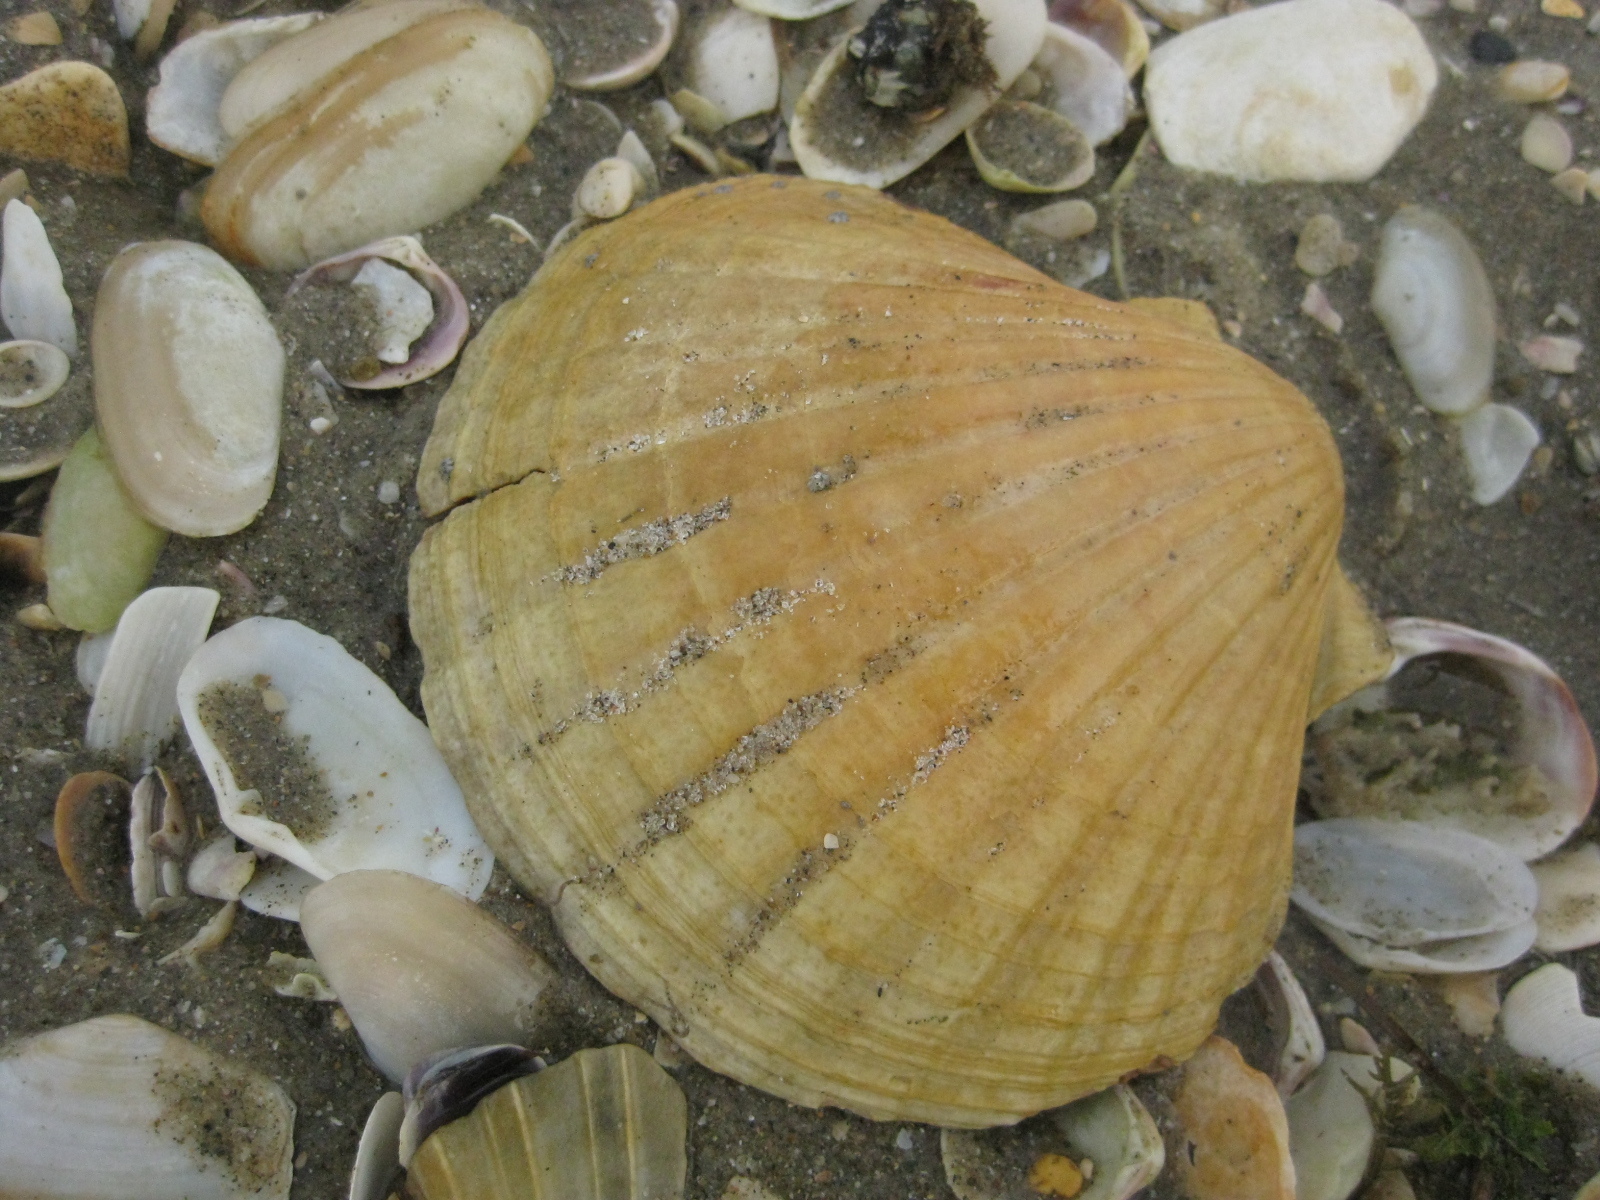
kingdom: Animalia
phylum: Mollusca
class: Bivalvia
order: Pectinida
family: Pectinidae
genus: Pecten
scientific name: Pecten novaezelandiae
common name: New zealand scallop
